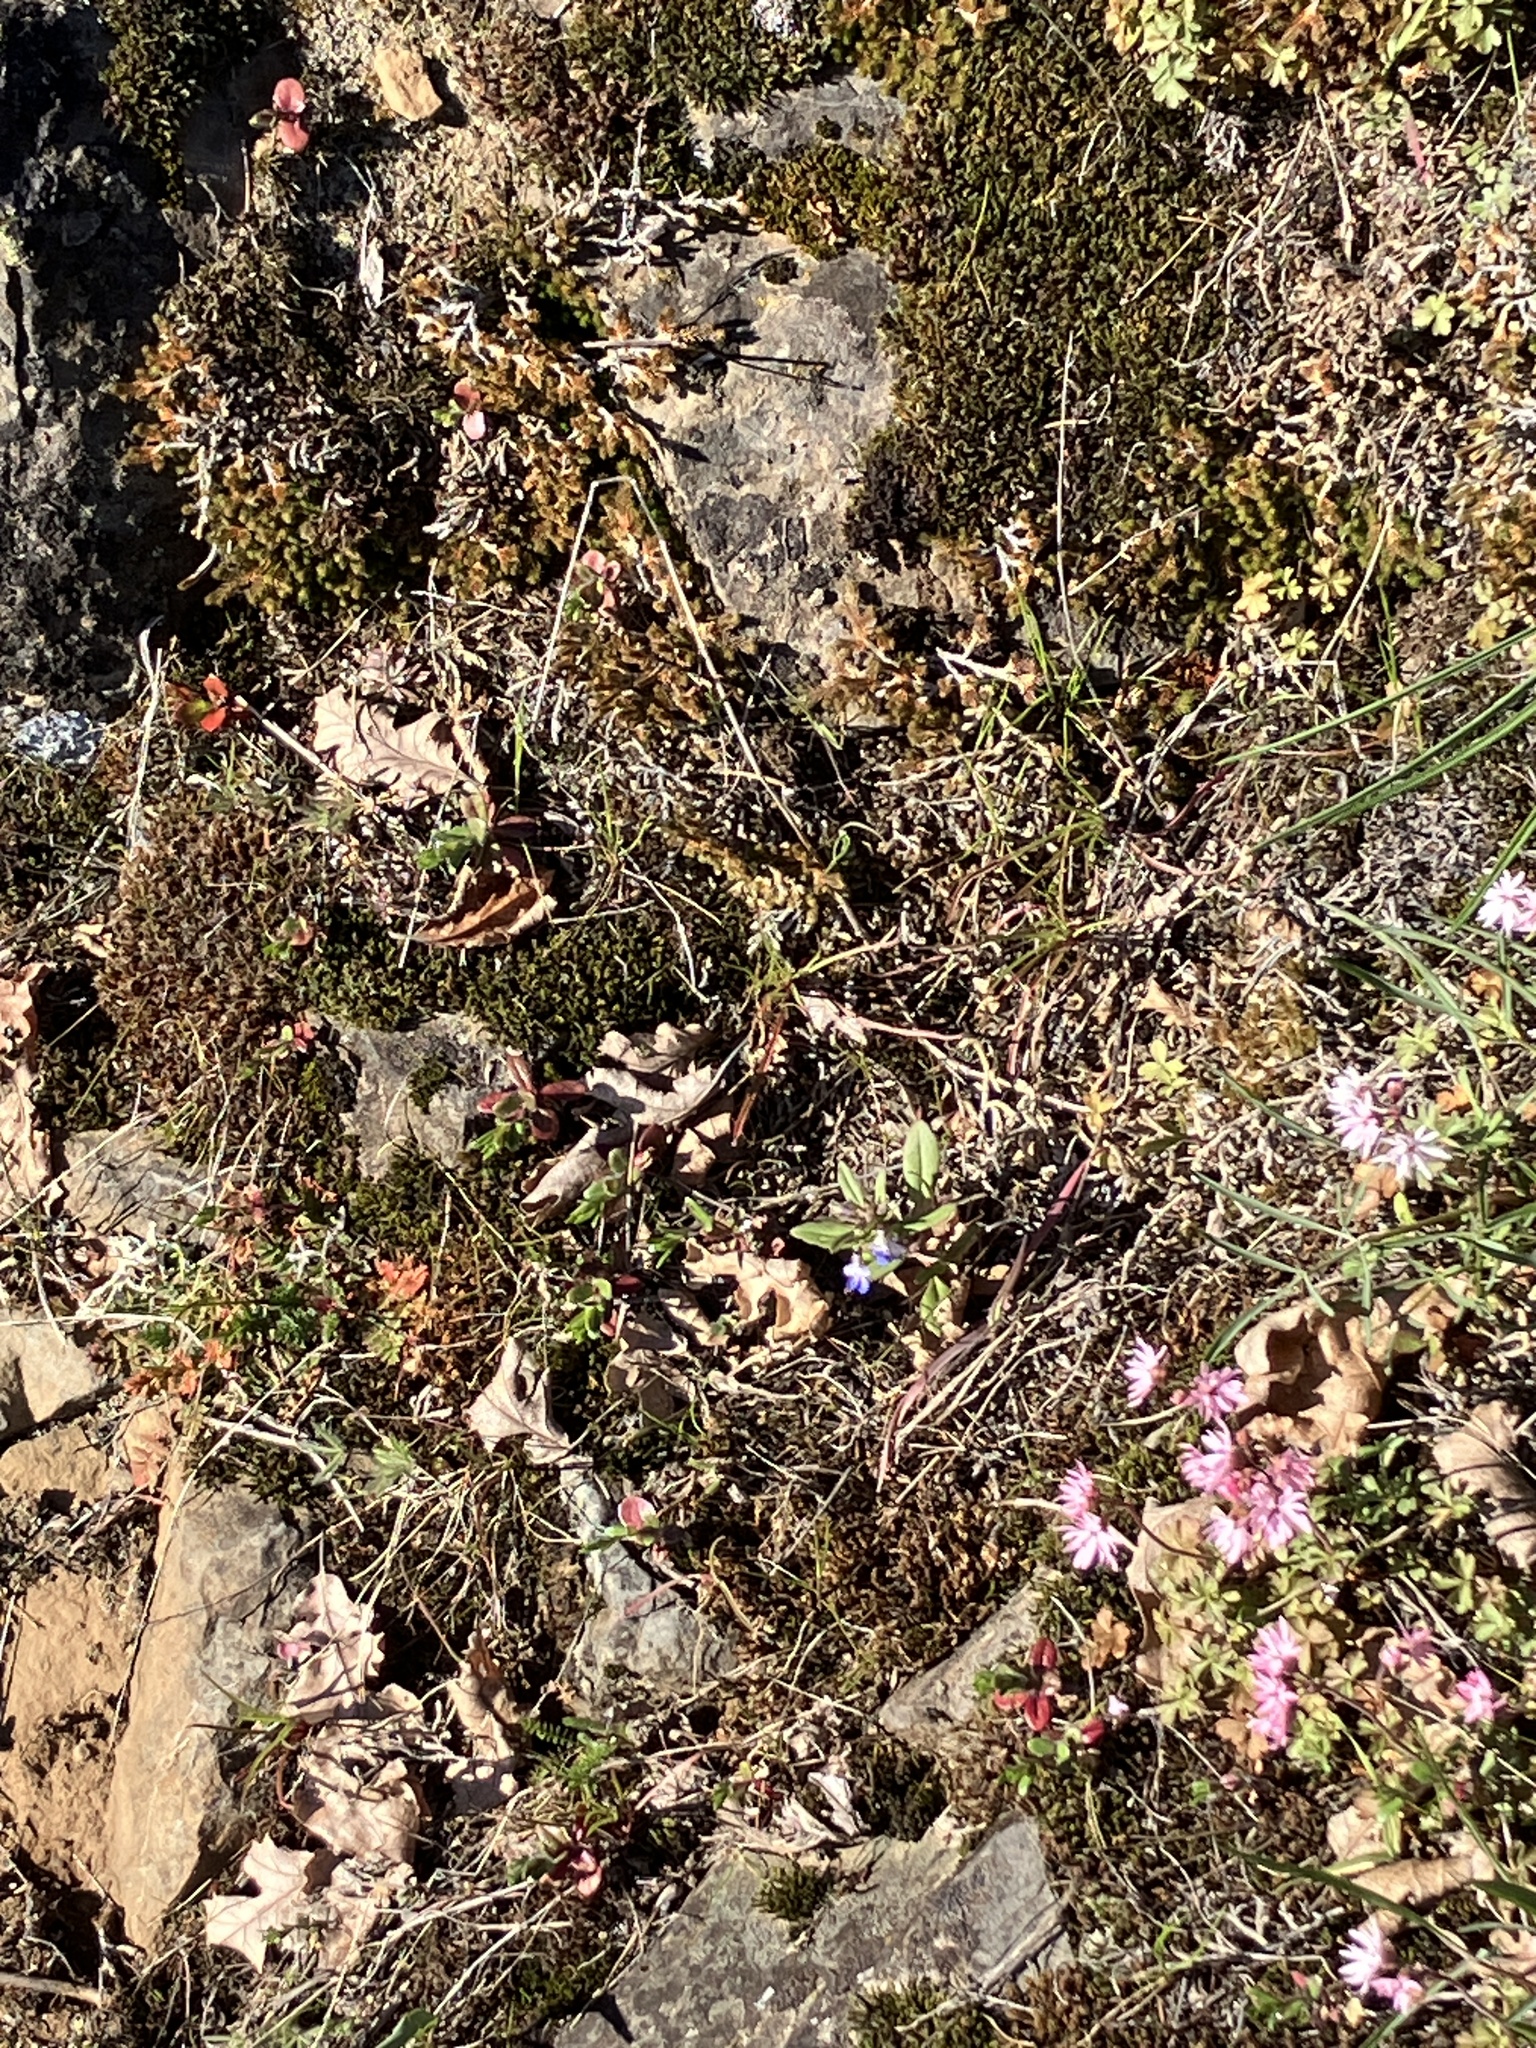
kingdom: Plantae
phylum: Tracheophyta
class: Magnoliopsida
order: Lamiales
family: Plantaginaceae
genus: Collinsia
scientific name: Collinsia parviflora
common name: Blue-lips
